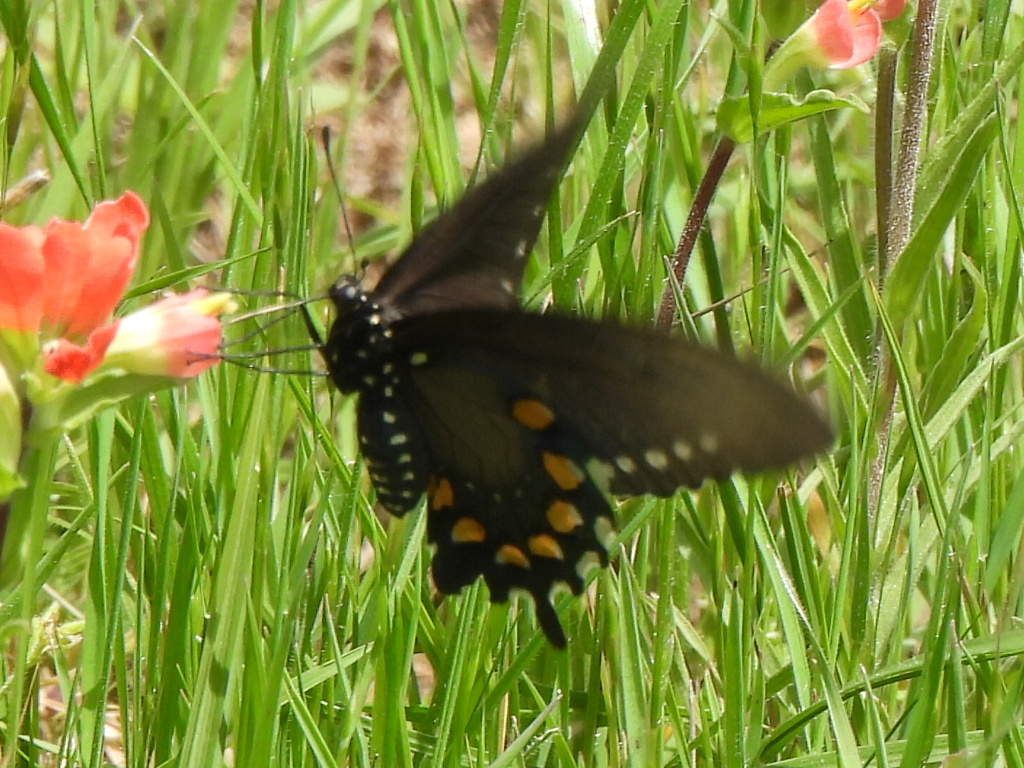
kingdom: Animalia
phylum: Arthropoda
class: Insecta
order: Lepidoptera
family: Papilionidae
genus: Battus
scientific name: Battus philenor
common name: Pipevine swallowtail
